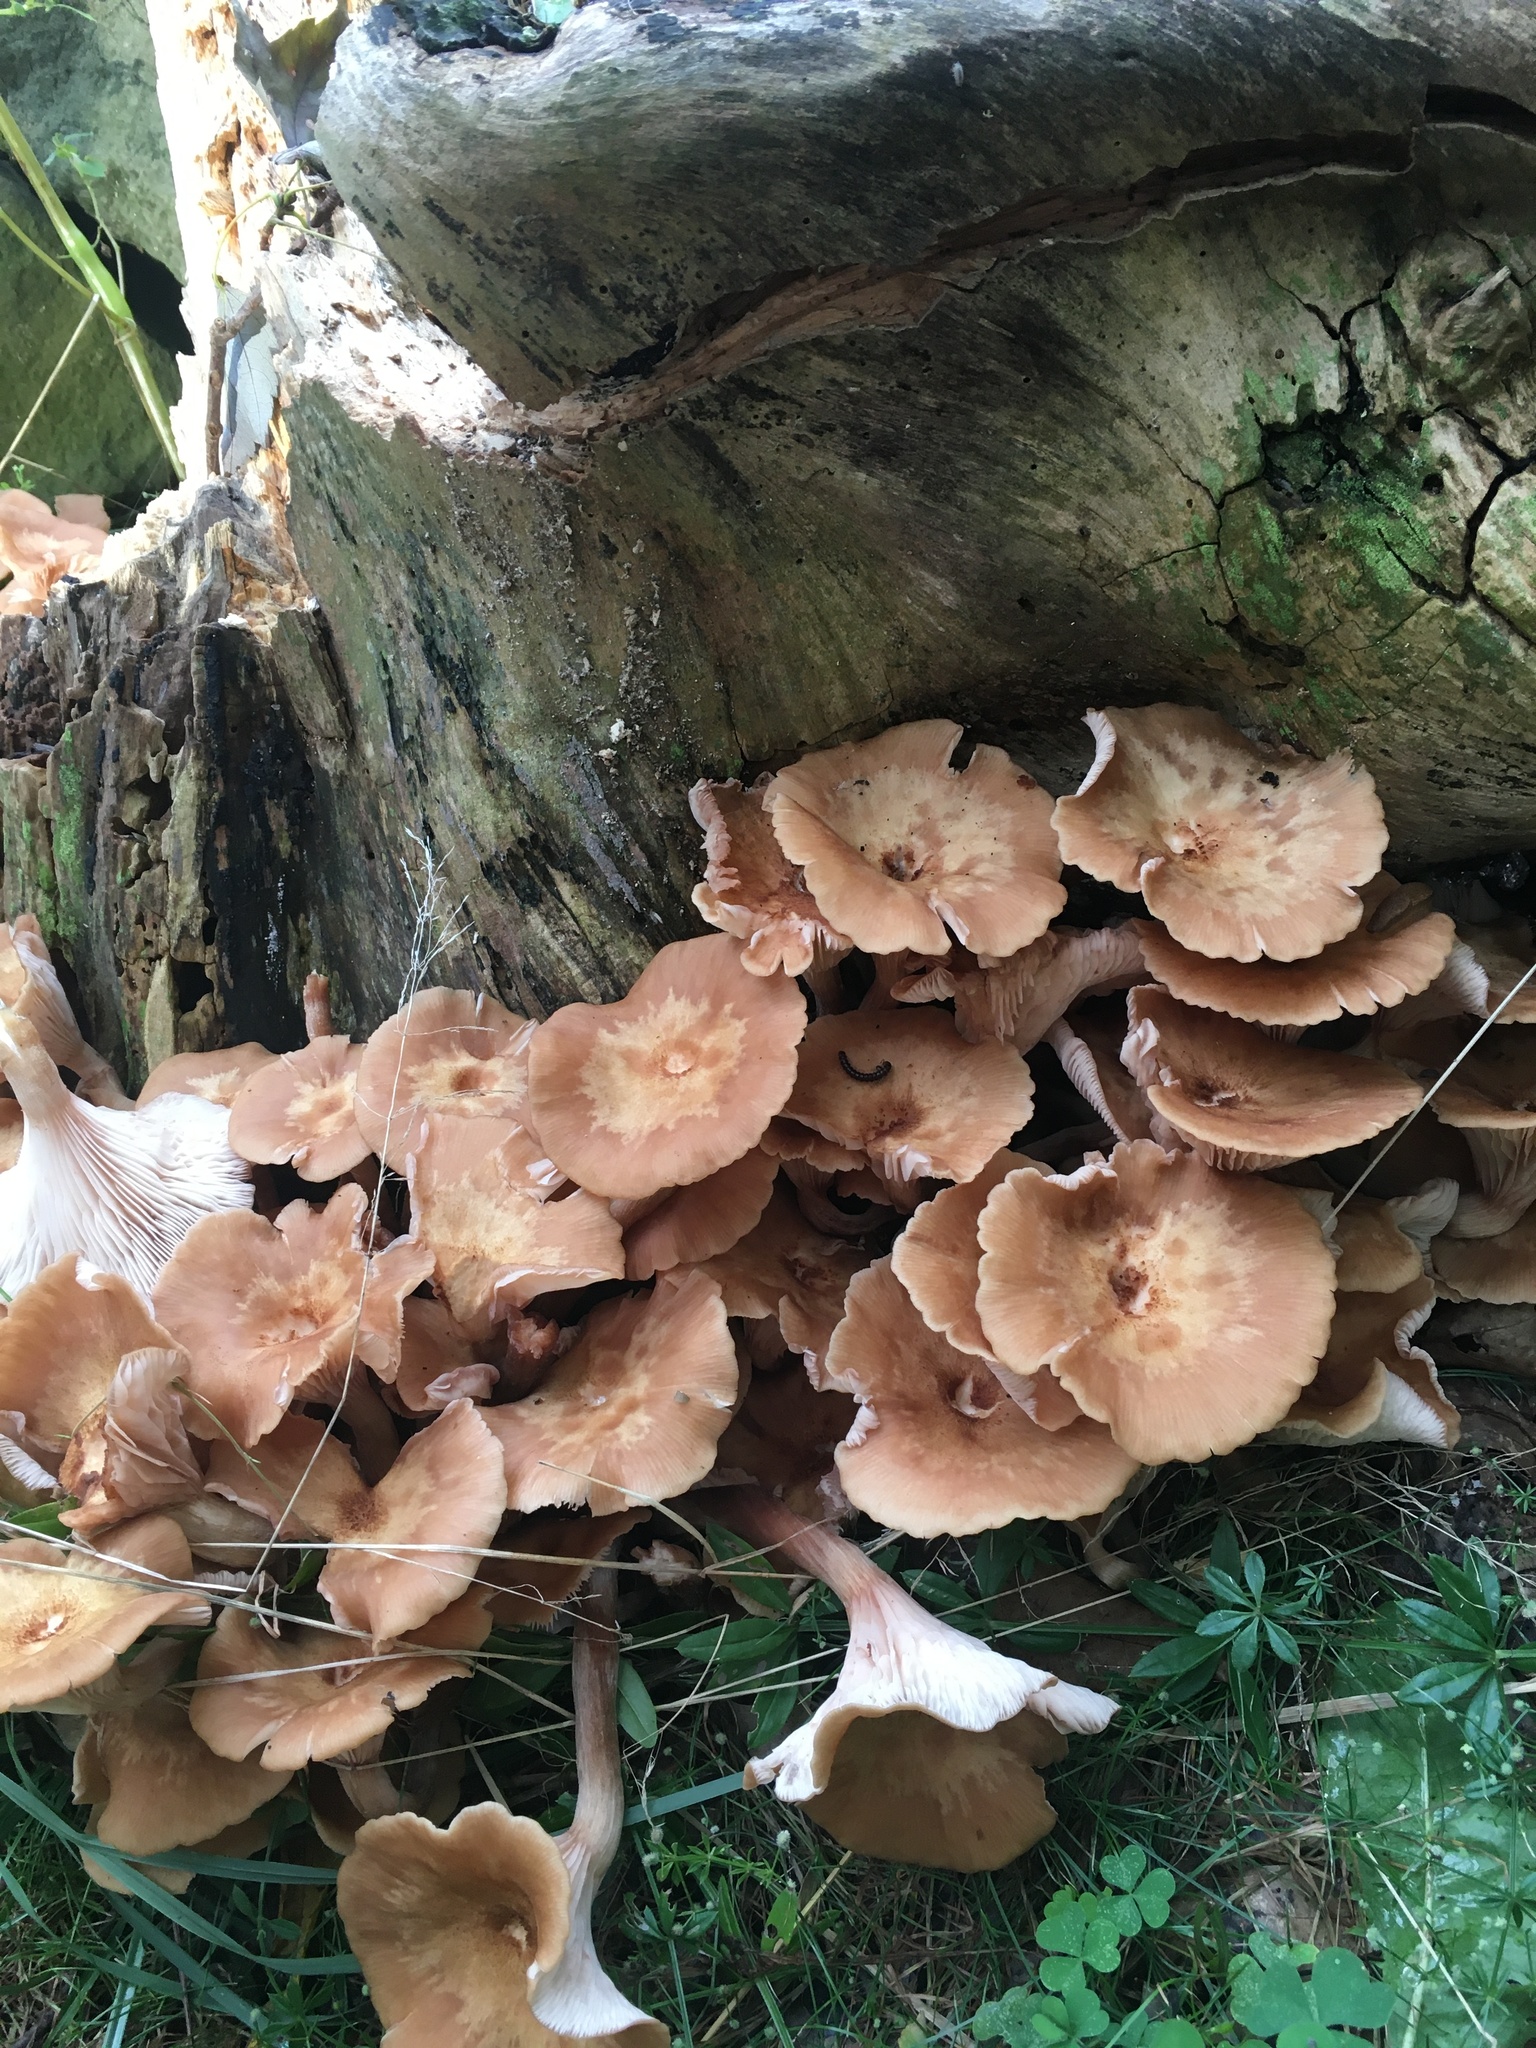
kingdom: Fungi
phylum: Basidiomycota
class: Agaricomycetes
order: Agaricales
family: Physalacriaceae
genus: Desarmillaria
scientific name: Desarmillaria caespitosa
